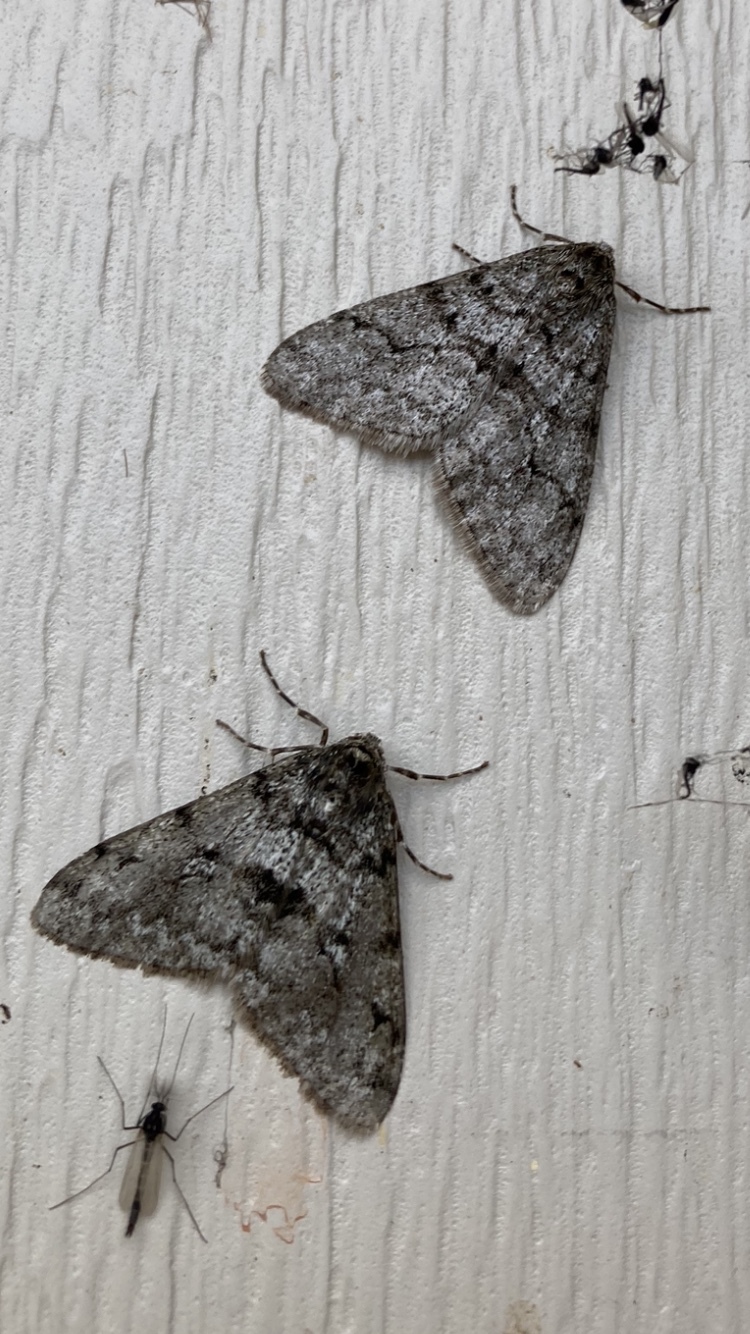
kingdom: Animalia
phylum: Arthropoda
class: Insecta
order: Lepidoptera
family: Geometridae
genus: Phigalia
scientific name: Phigalia strigataria
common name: Small phigalia
